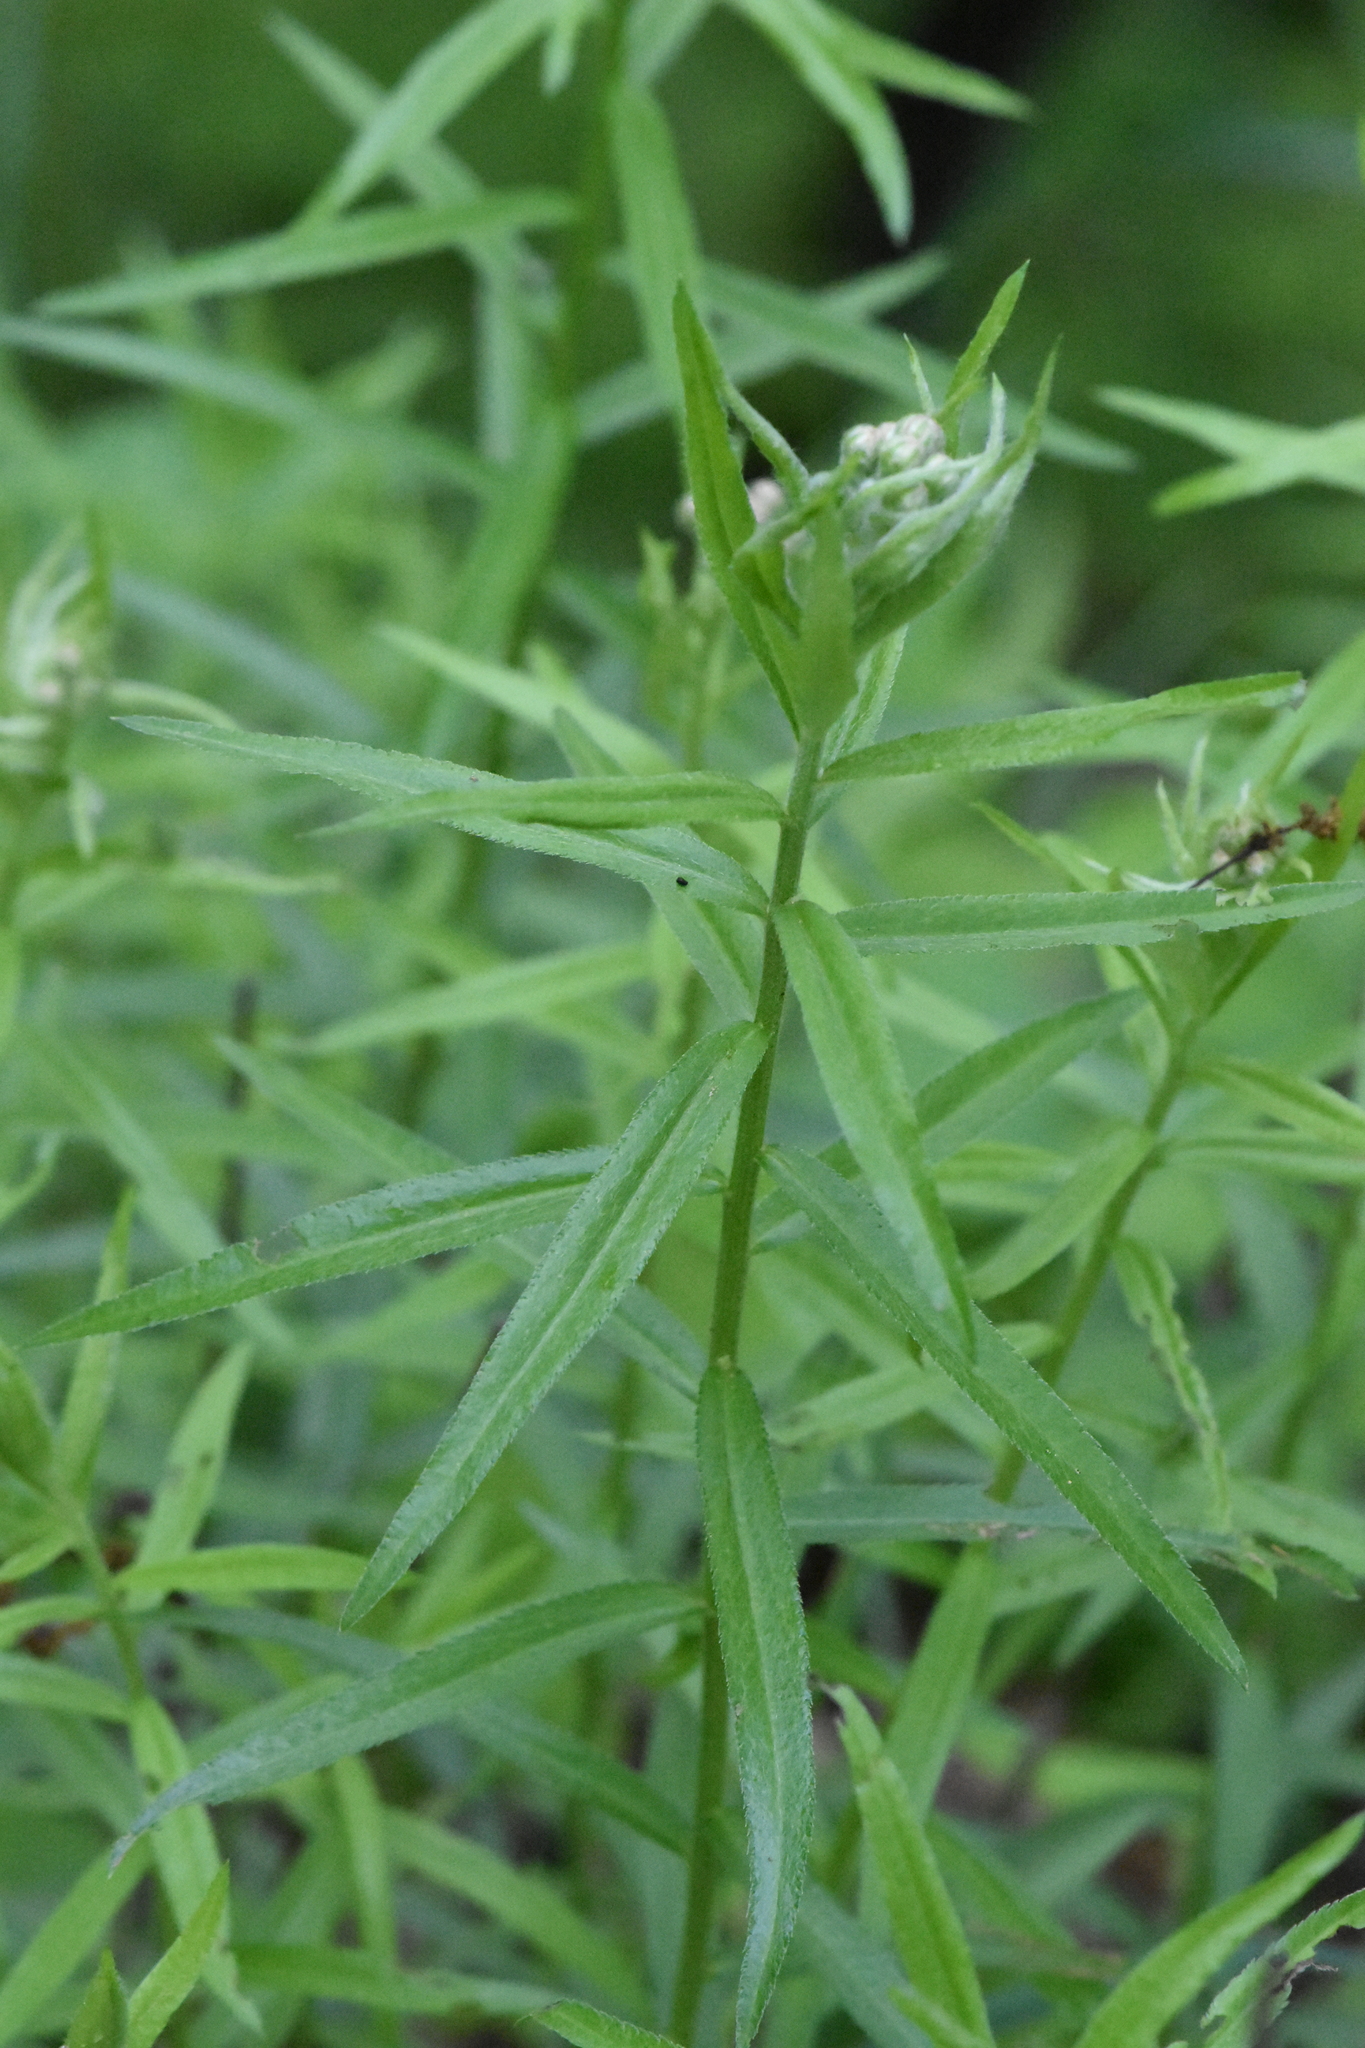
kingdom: Plantae
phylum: Tracheophyta
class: Magnoliopsida
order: Asterales
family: Asteraceae
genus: Achillea
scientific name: Achillea biserrata
